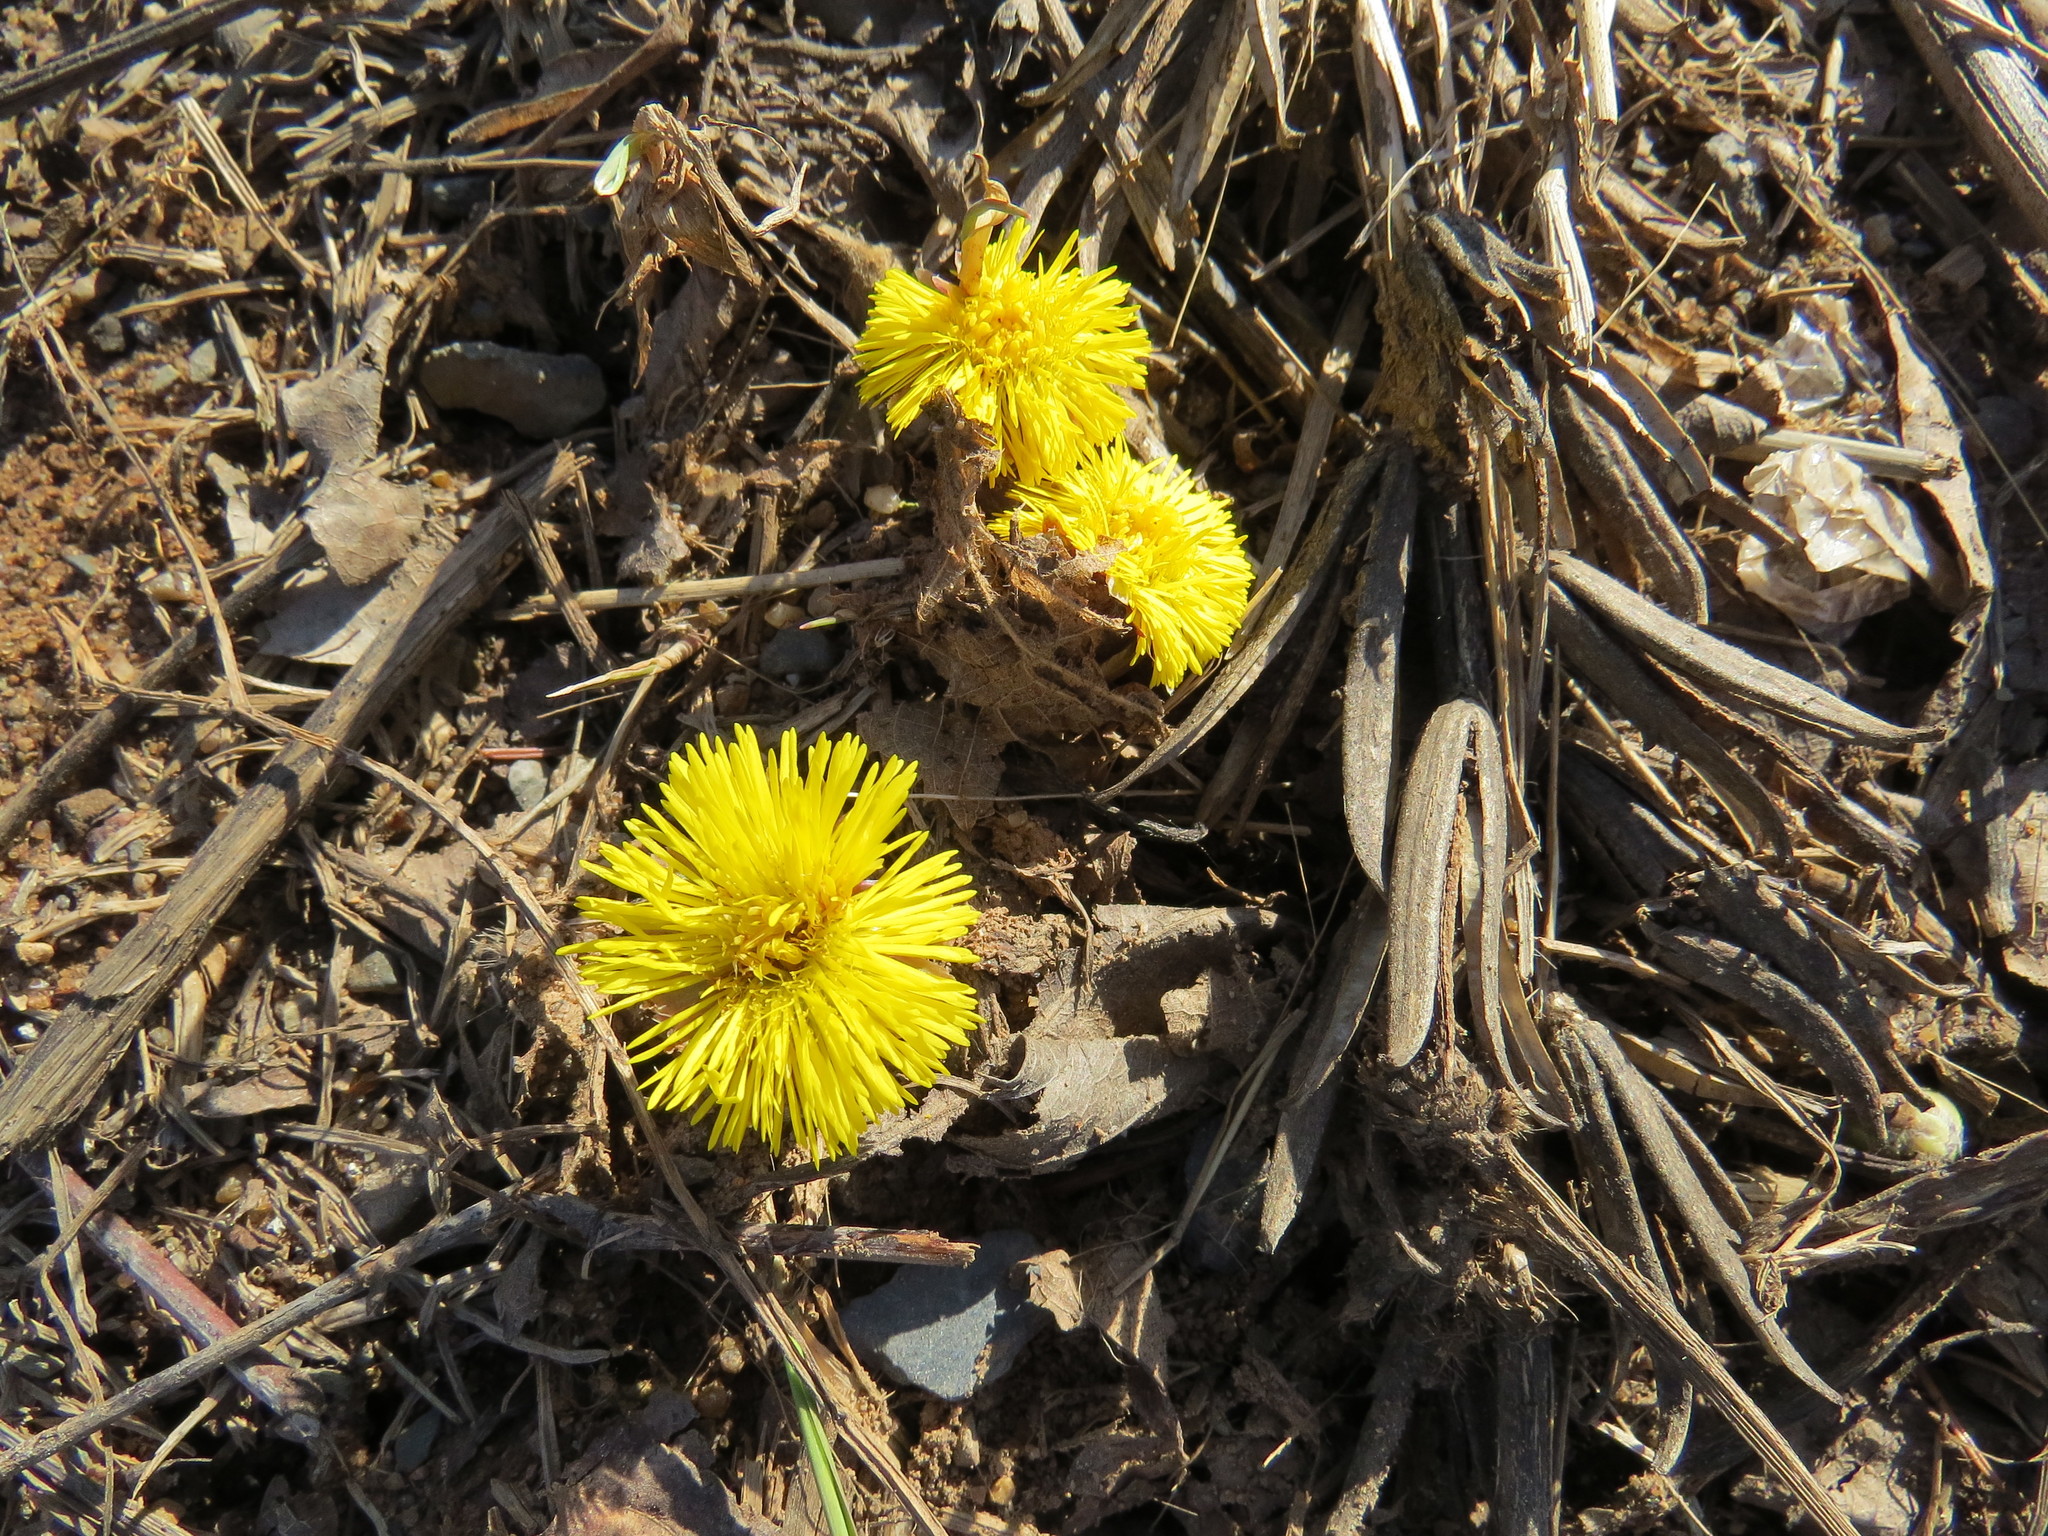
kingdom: Plantae
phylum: Tracheophyta
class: Magnoliopsida
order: Asterales
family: Asteraceae
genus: Tussilago
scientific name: Tussilago farfara
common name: Coltsfoot
